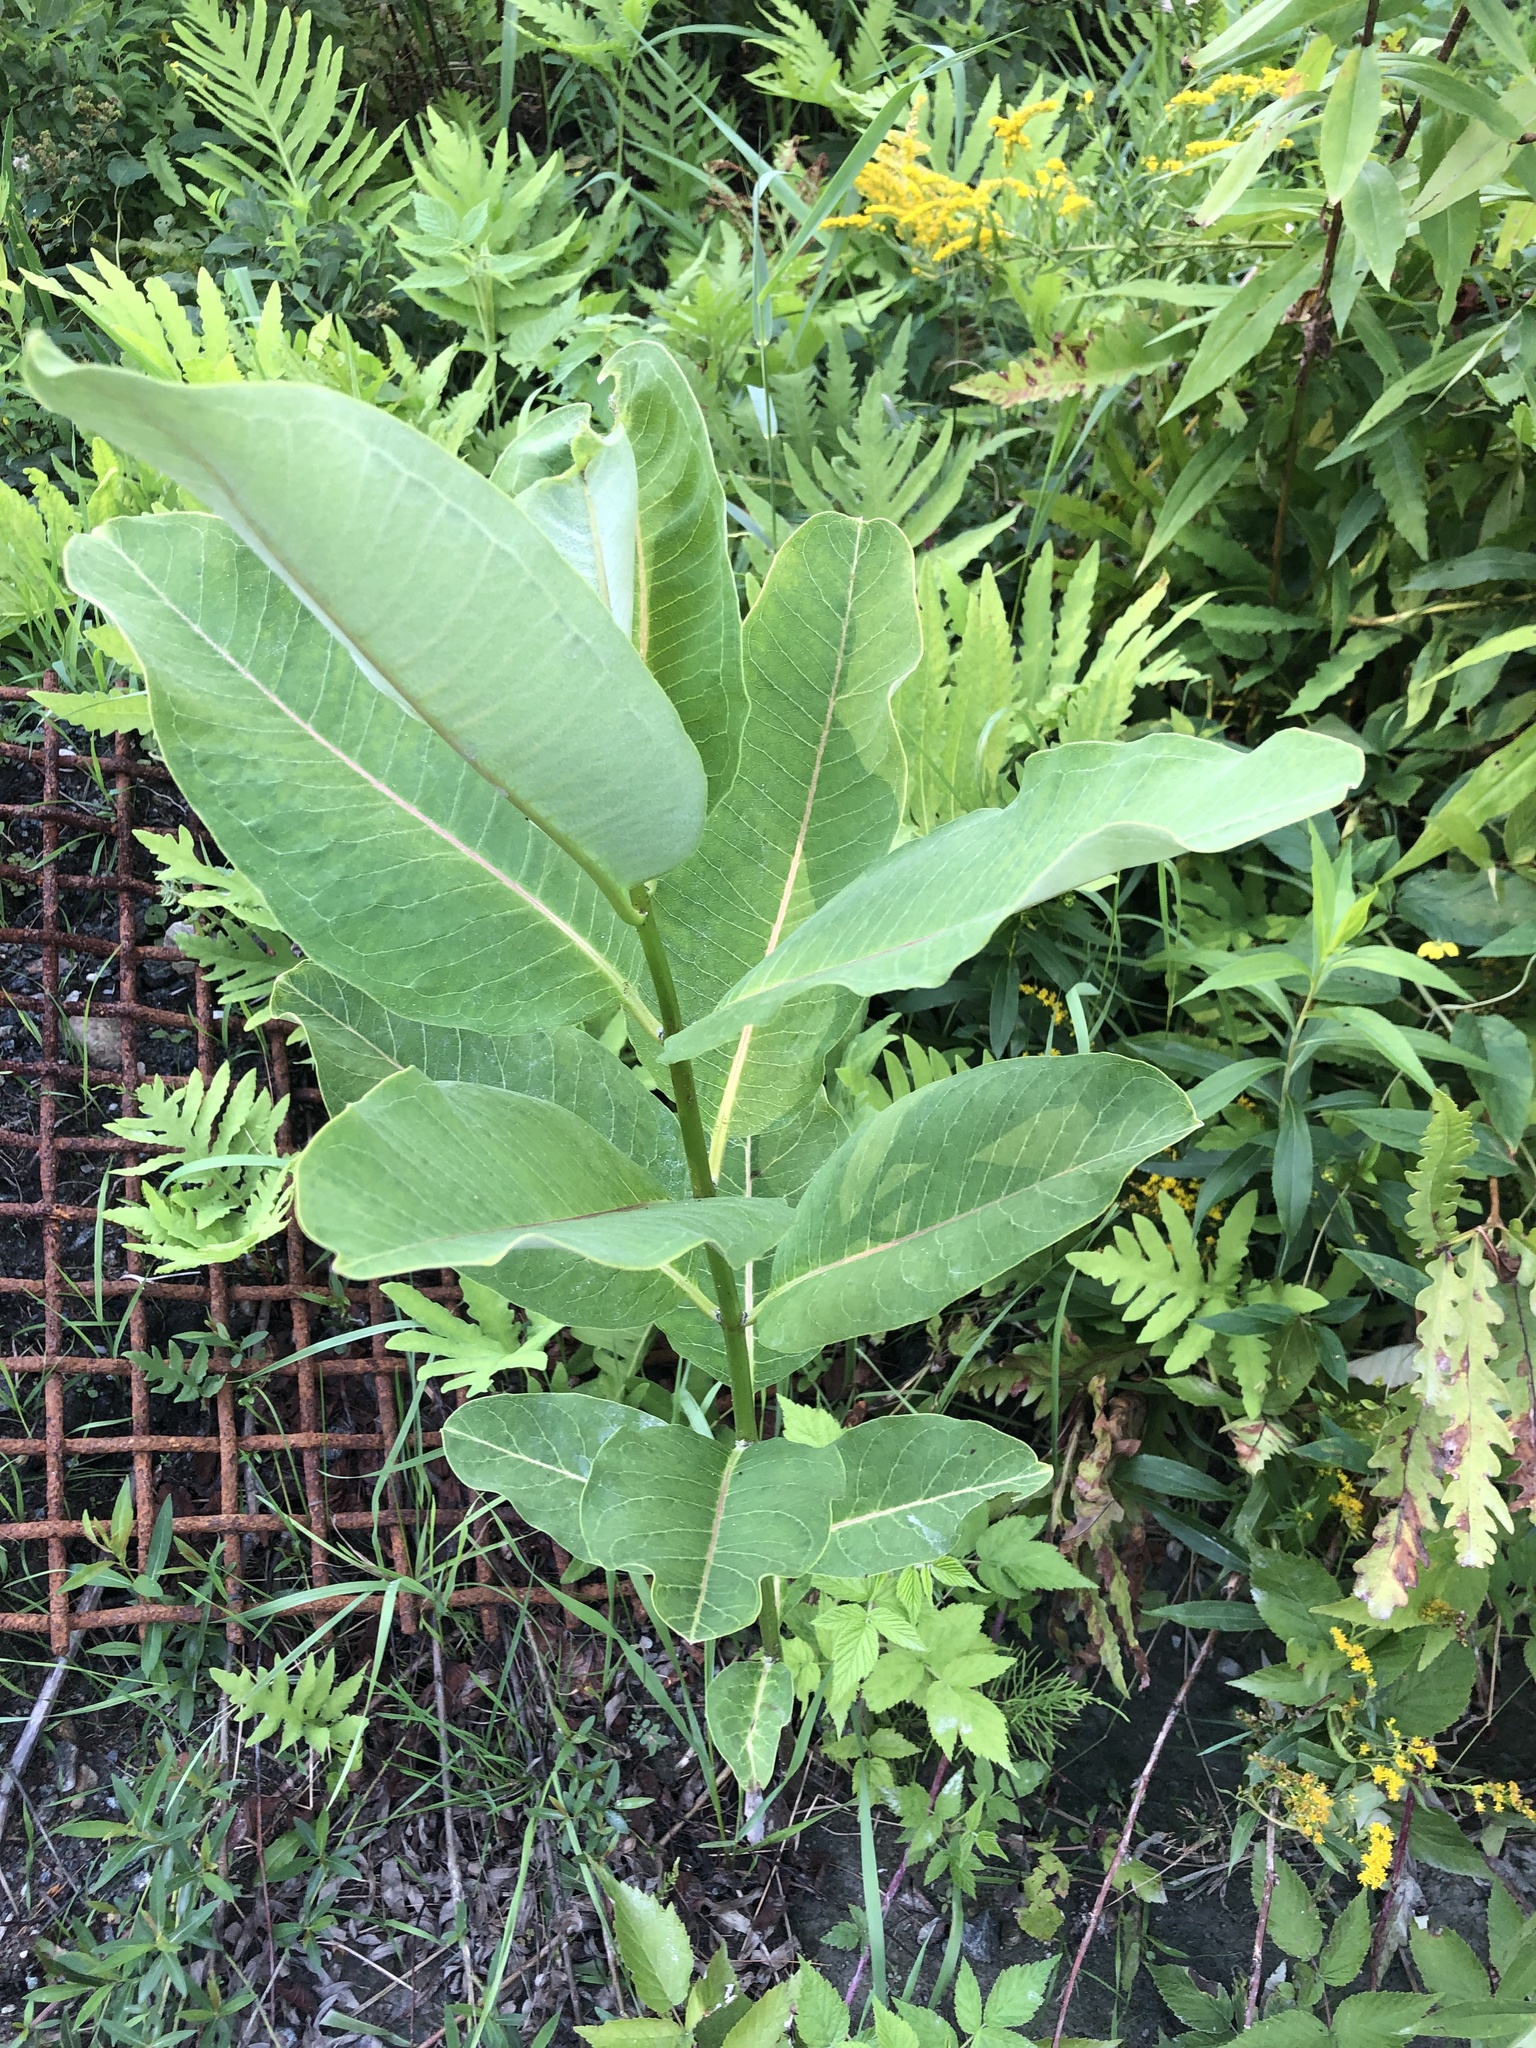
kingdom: Plantae
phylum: Tracheophyta
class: Magnoliopsida
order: Gentianales
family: Apocynaceae
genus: Asclepias
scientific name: Asclepias syriaca
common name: Common milkweed
